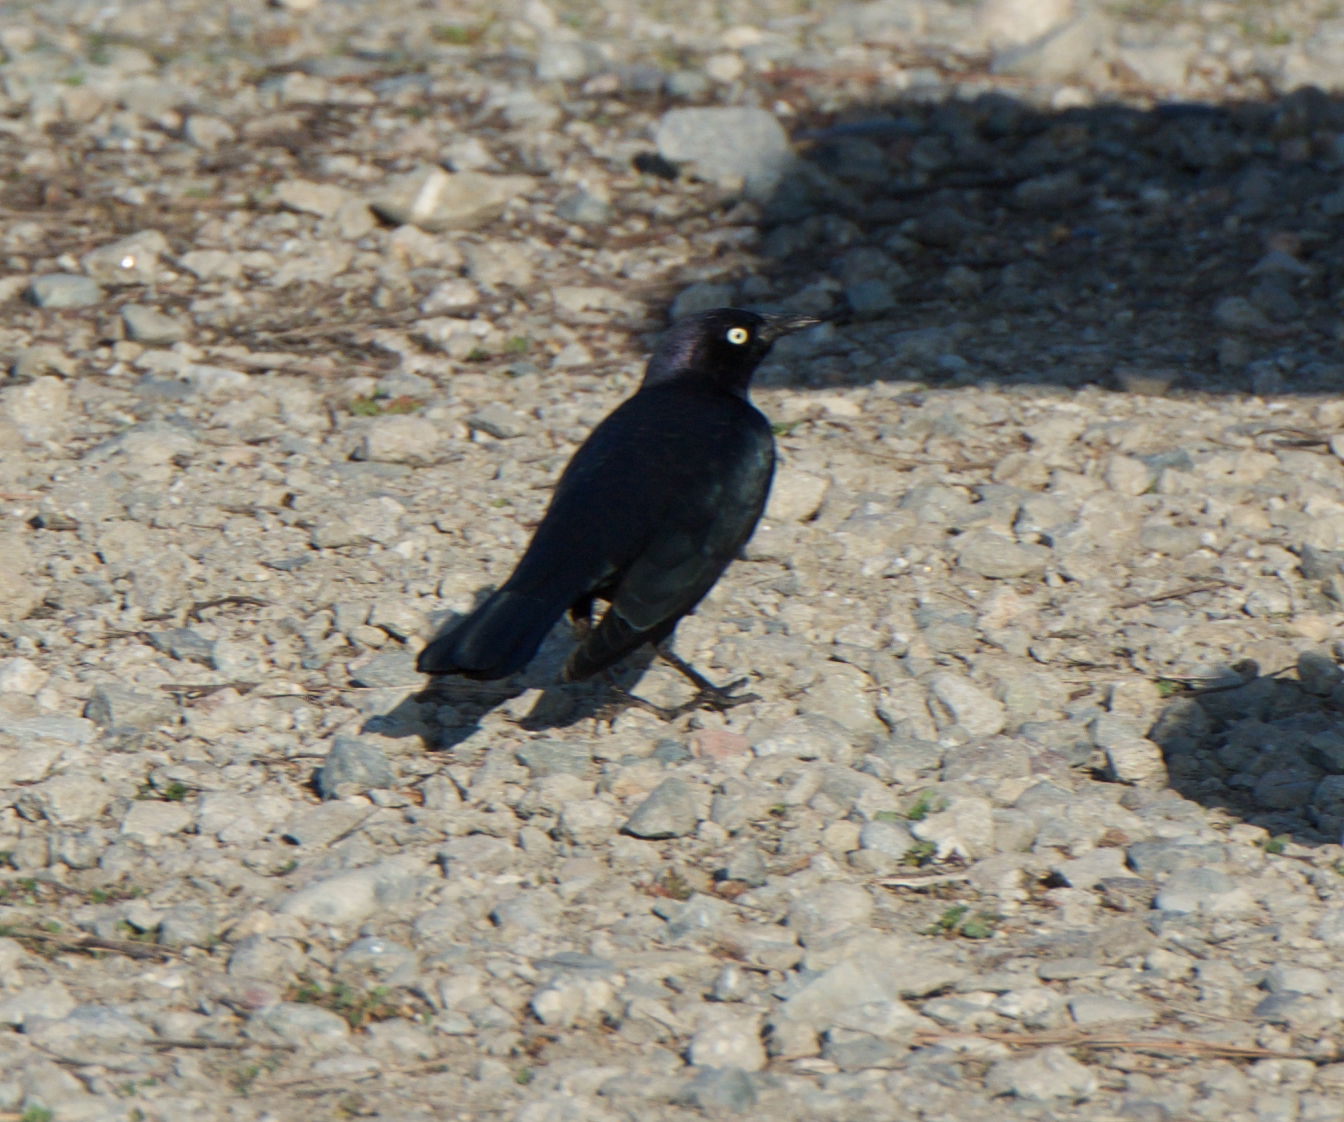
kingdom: Animalia
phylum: Chordata
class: Aves
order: Passeriformes
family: Icteridae
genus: Euphagus
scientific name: Euphagus cyanocephalus
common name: Brewer's blackbird
